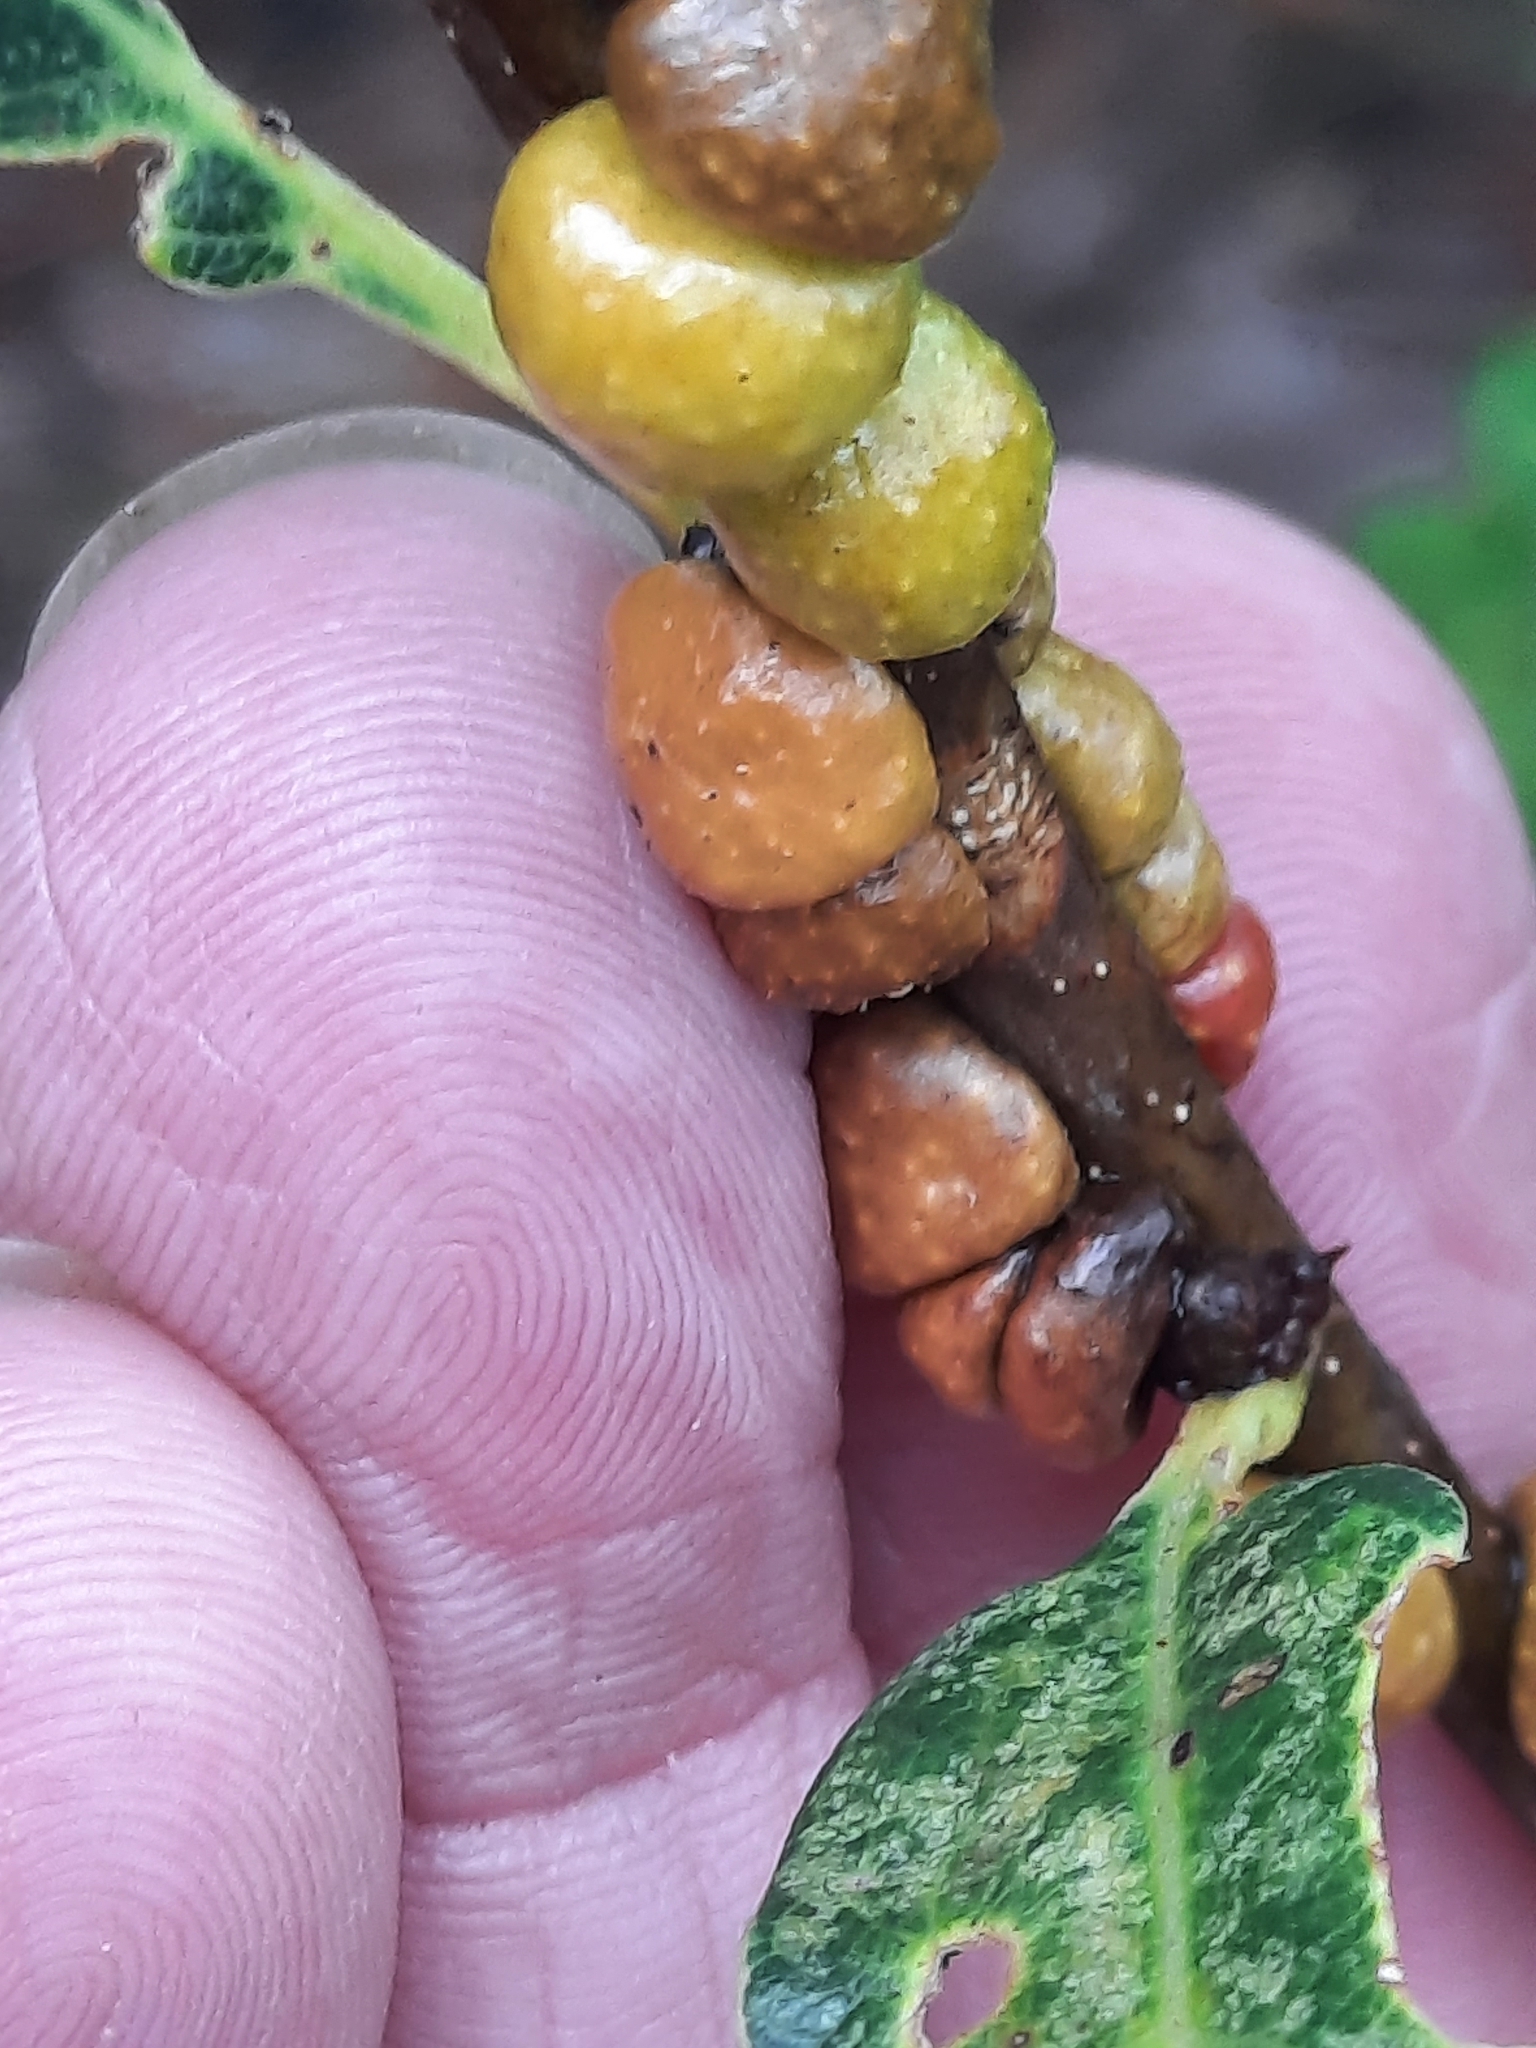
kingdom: Animalia
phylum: Arthropoda
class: Insecta
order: Hymenoptera
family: Cynipidae
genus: Trigonaspis
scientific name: Trigonaspis quercusforticornis
